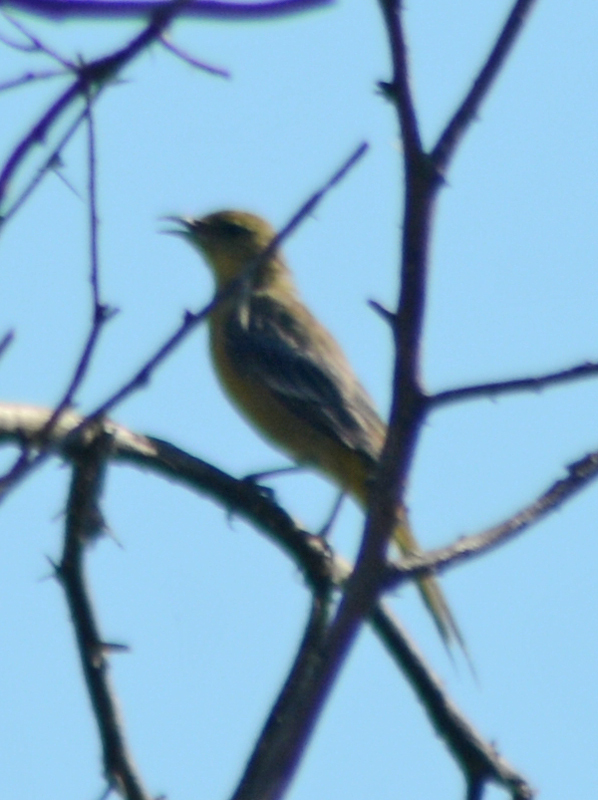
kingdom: Animalia
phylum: Chordata
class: Aves
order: Passeriformes
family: Icteridae
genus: Icterus
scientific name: Icterus cucullatus
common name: Hooded oriole
